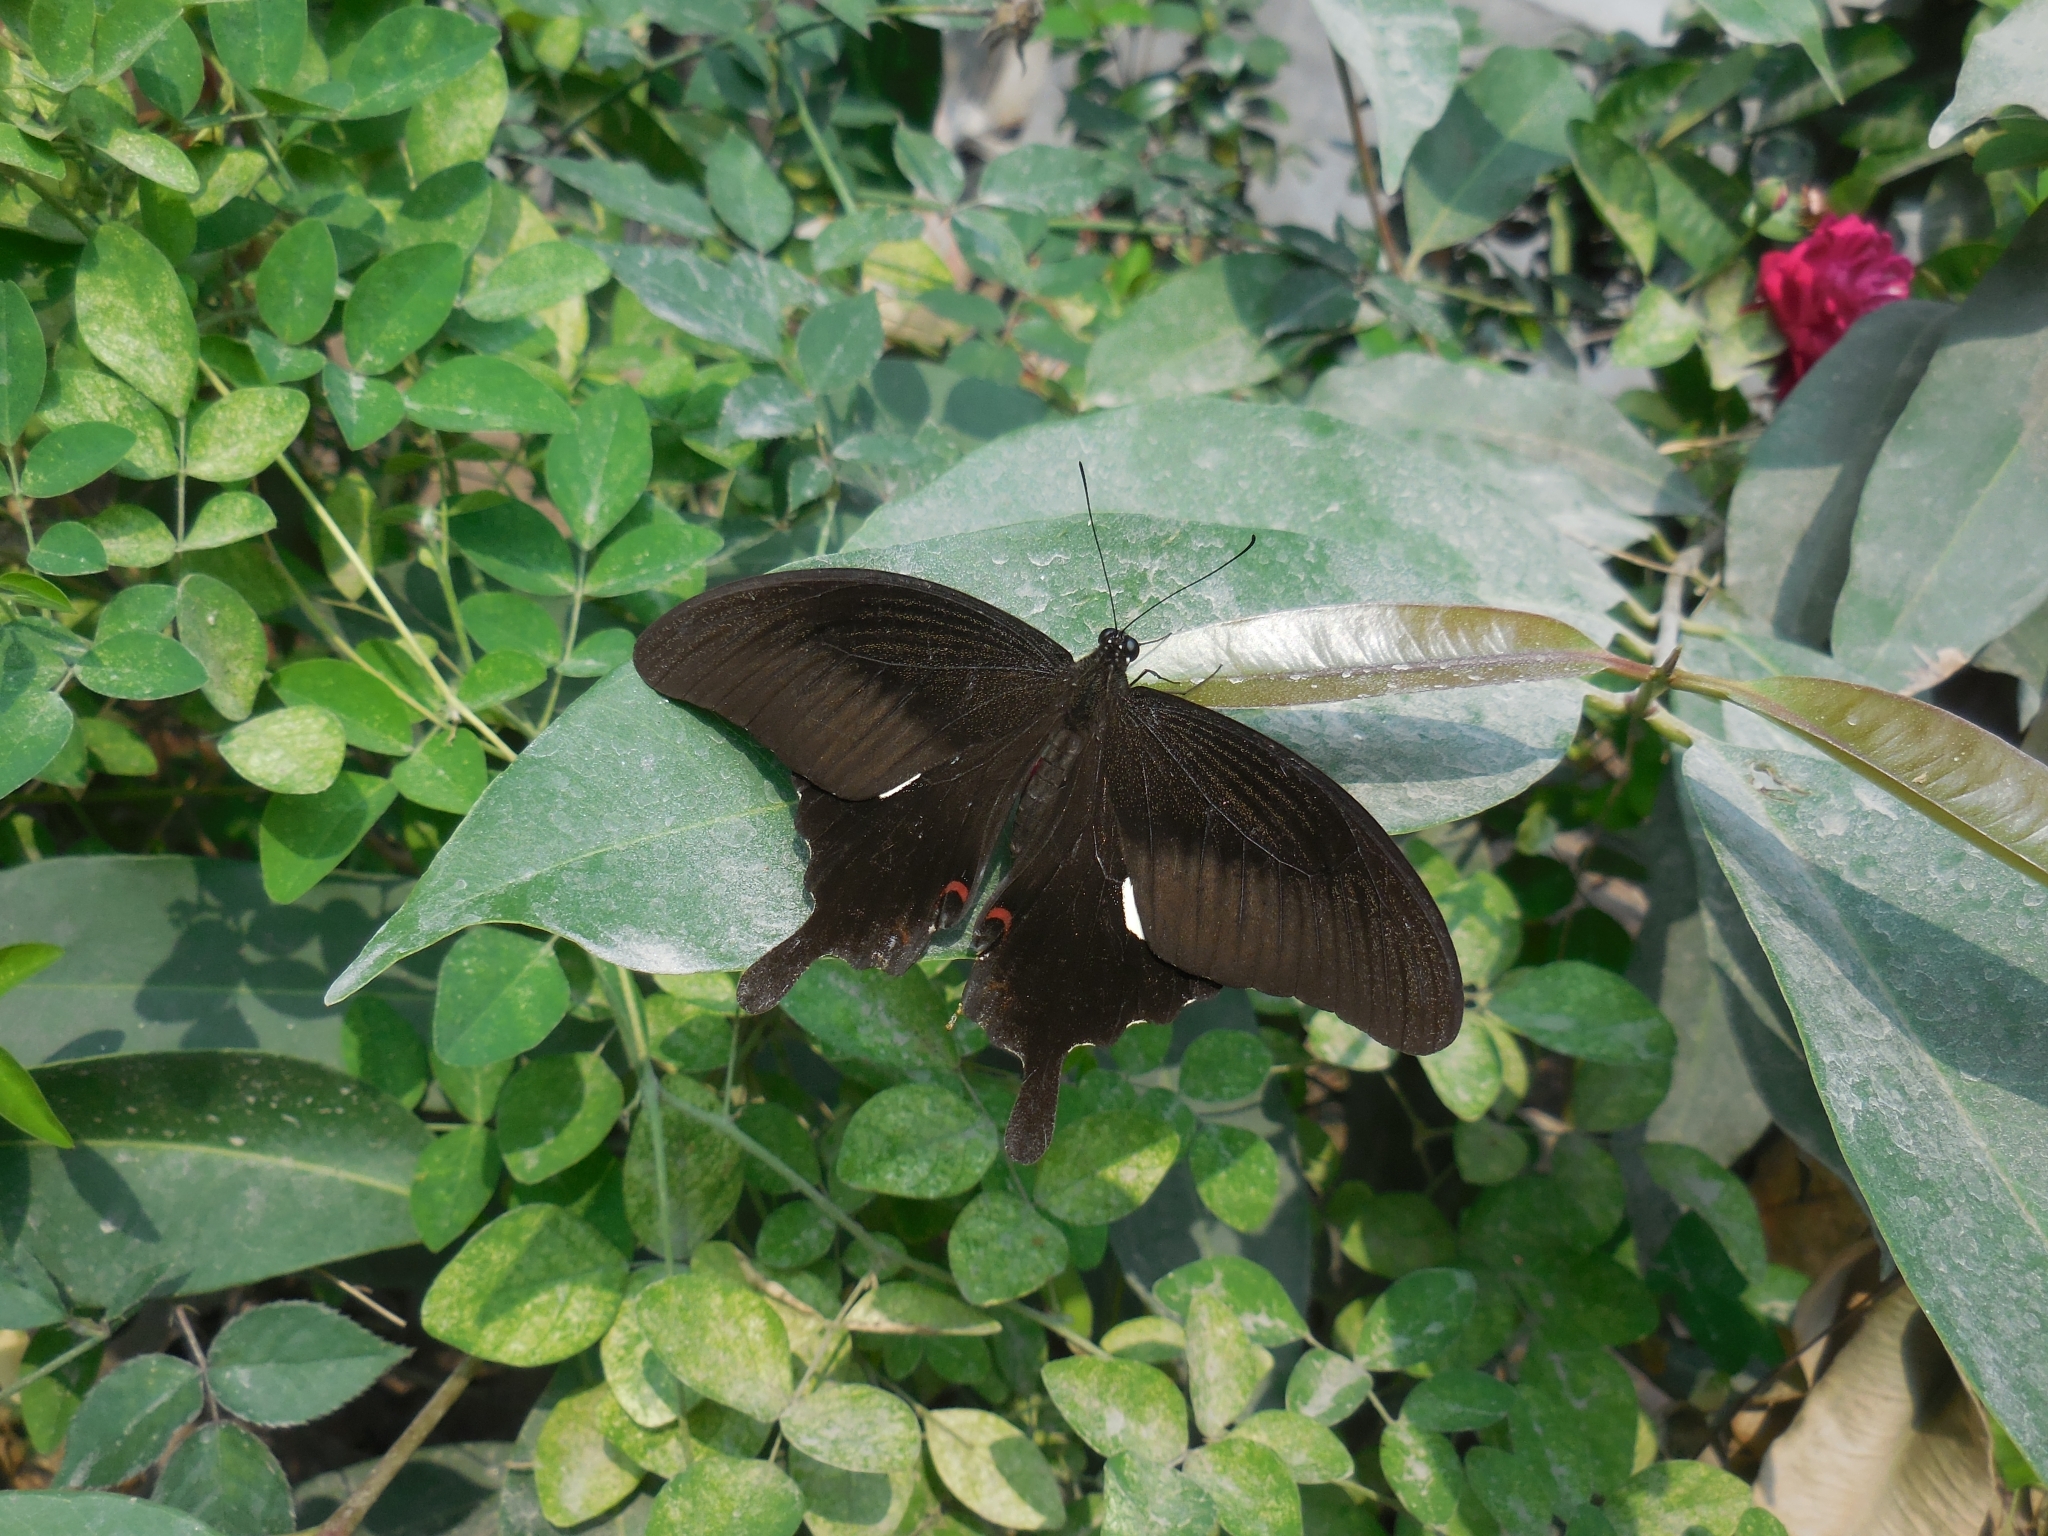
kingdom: Animalia
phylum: Arthropoda
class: Insecta
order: Lepidoptera
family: Papilionidae
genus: Papilio
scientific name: Papilio helenus
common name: Red helen
